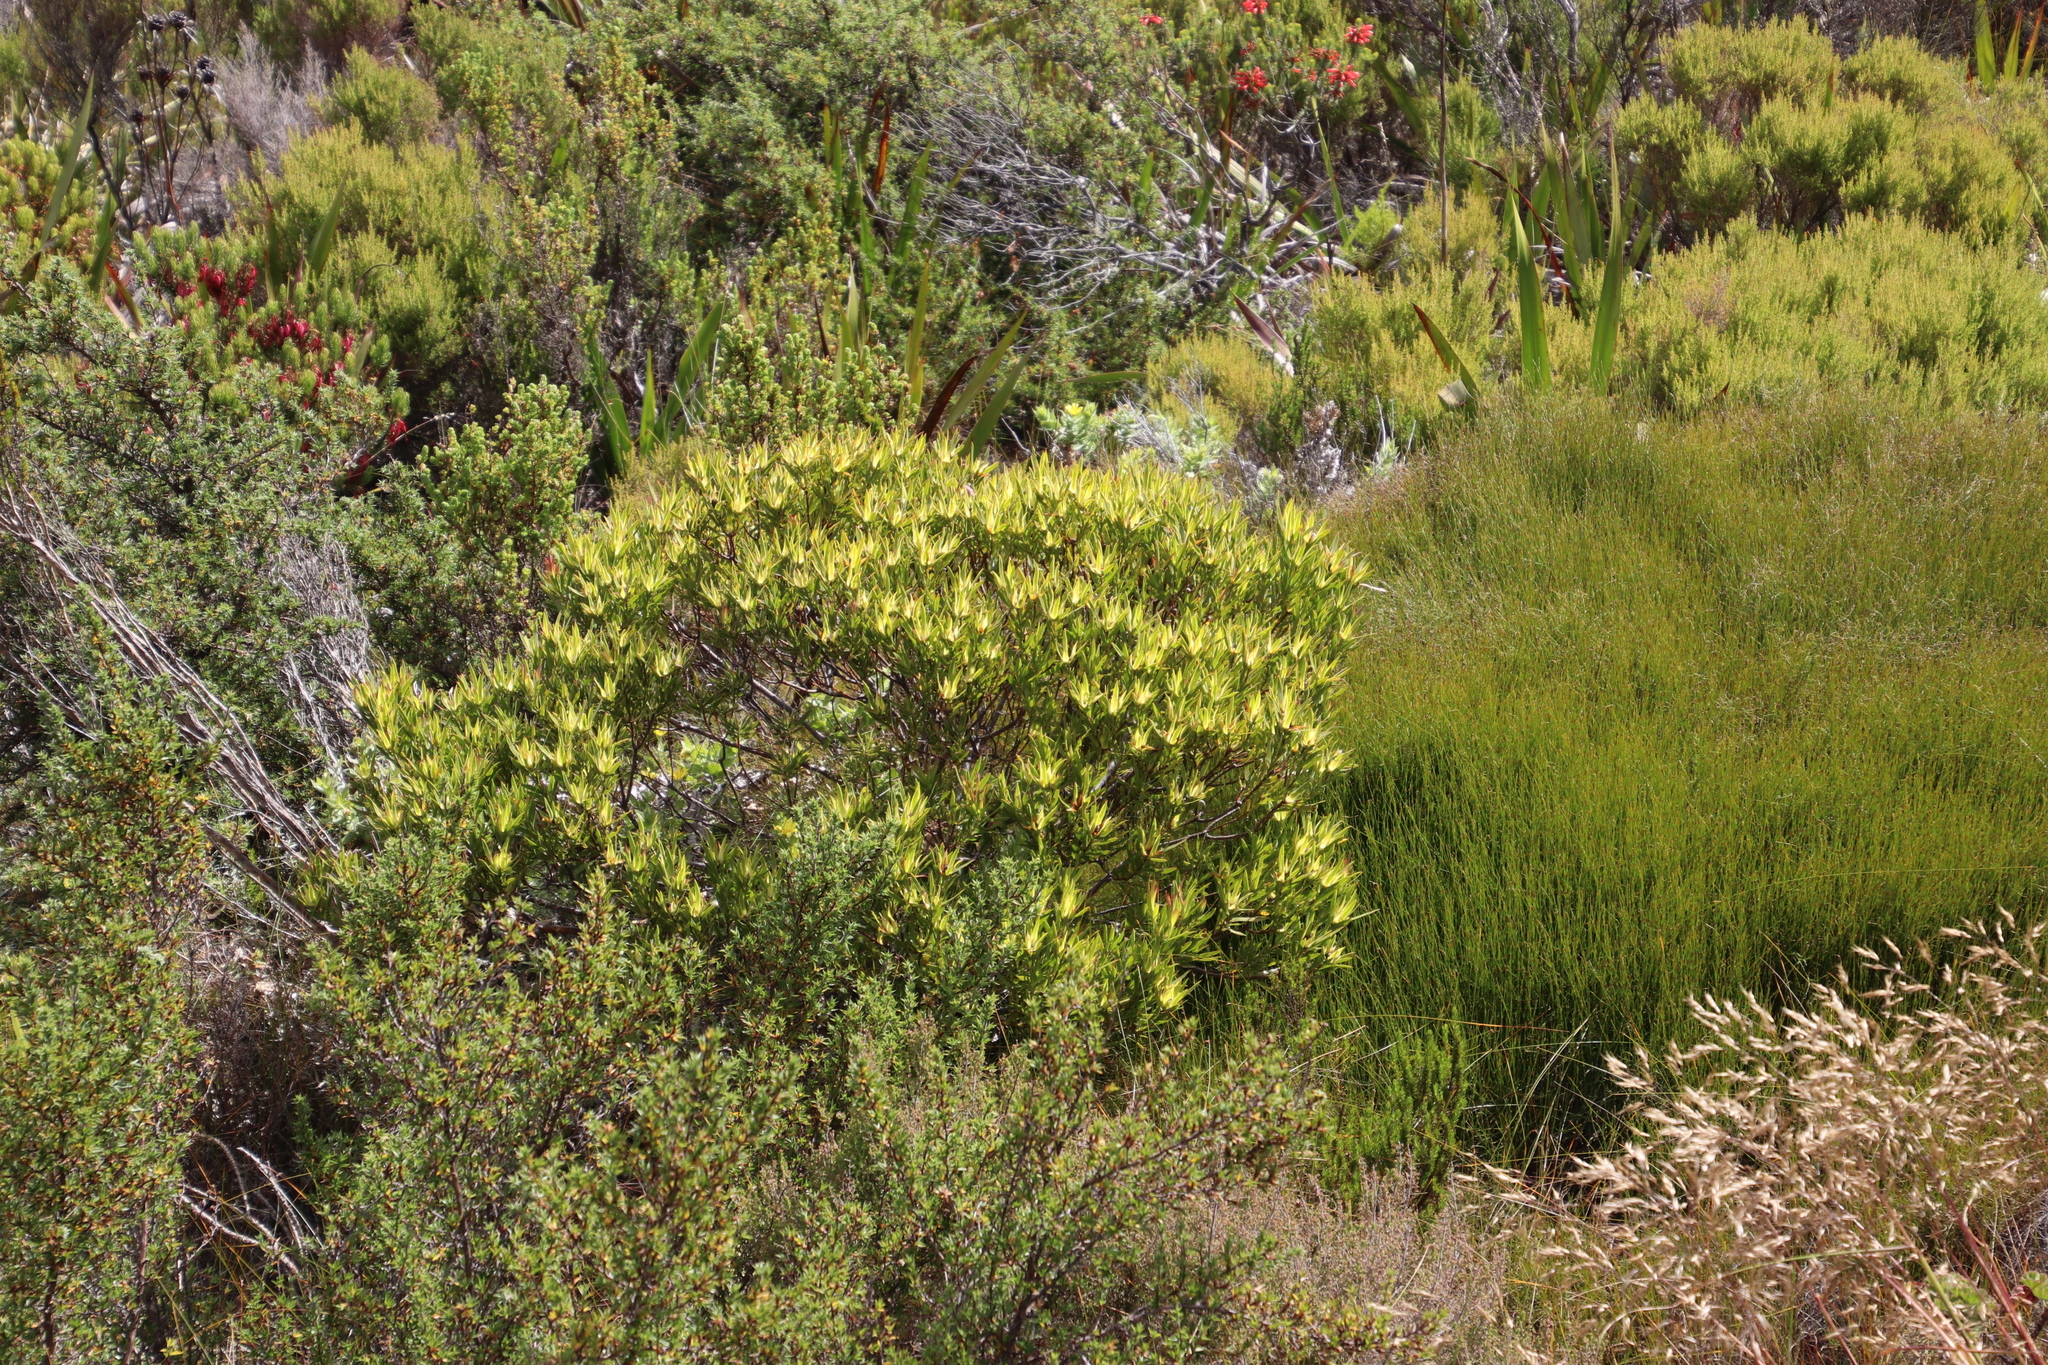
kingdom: Plantae
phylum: Tracheophyta
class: Magnoliopsida
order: Proteales
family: Proteaceae
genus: Leucadendron
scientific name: Leucadendron xanthoconus
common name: Sickle-leaf conebush
